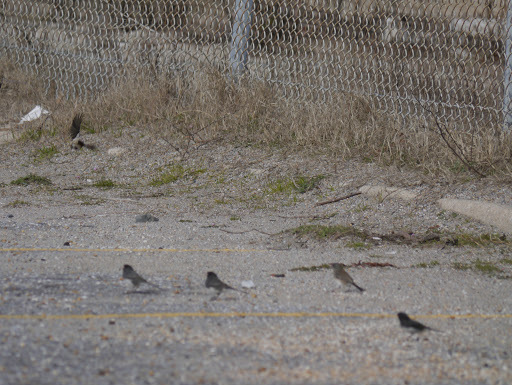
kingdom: Animalia
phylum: Chordata
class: Aves
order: Passeriformes
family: Passerellidae
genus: Junco
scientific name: Junco hyemalis
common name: Dark-eyed junco
